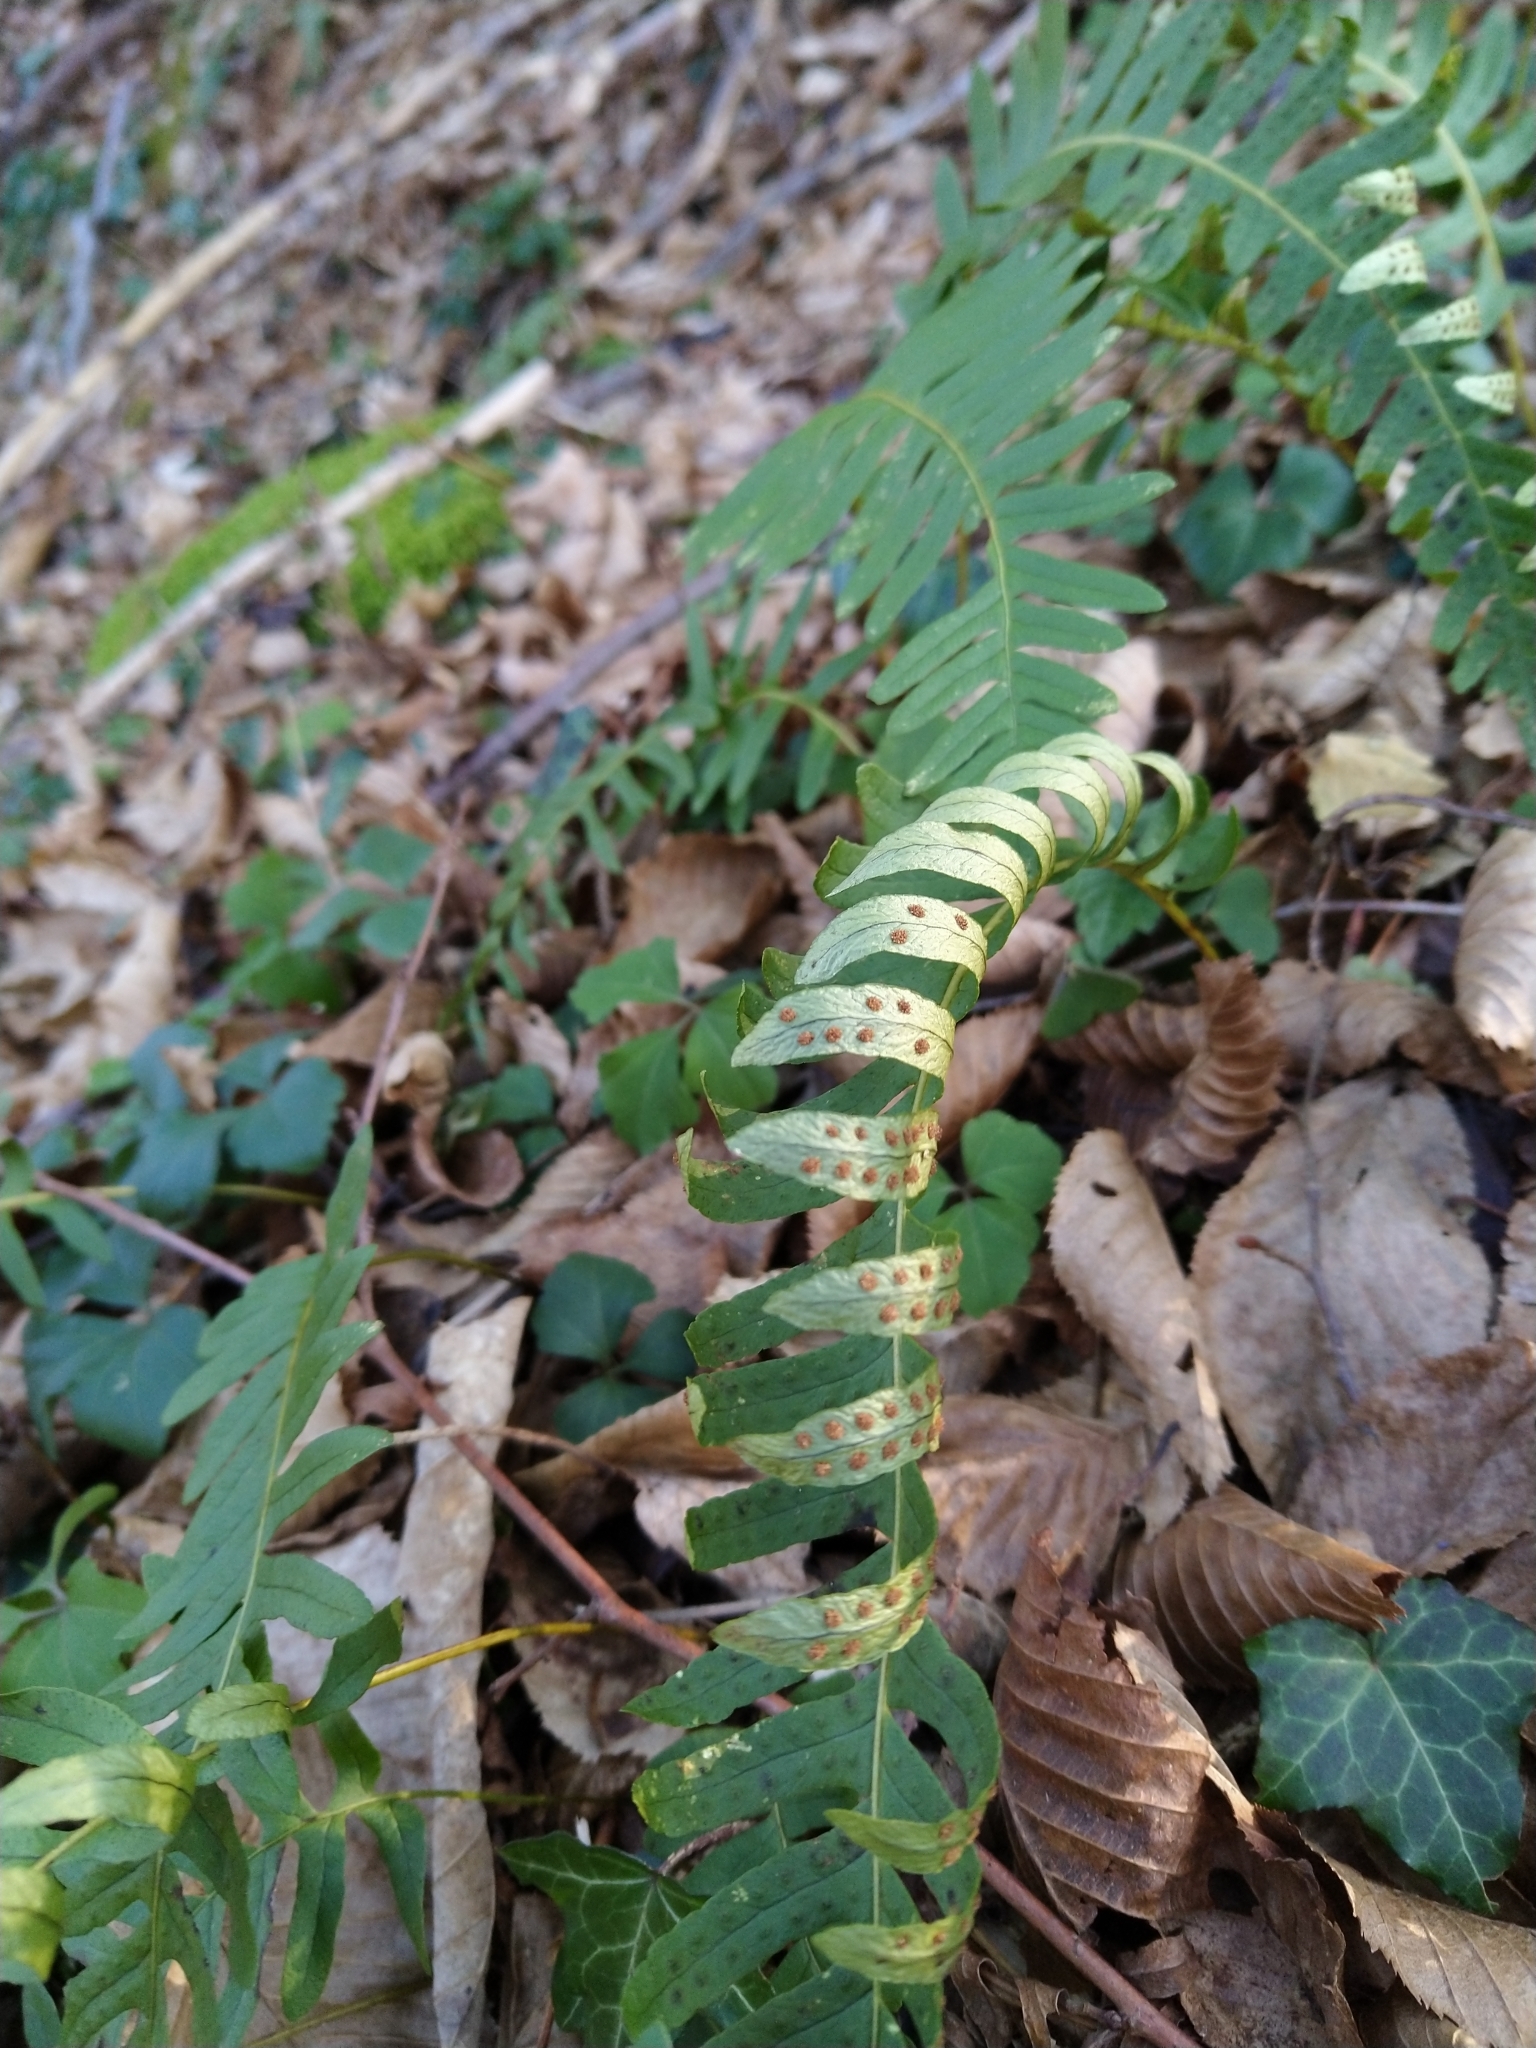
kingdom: Plantae
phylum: Tracheophyta
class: Polypodiopsida
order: Polypodiales
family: Polypodiaceae
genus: Polypodium
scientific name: Polypodium vulgare
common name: Common polypody
